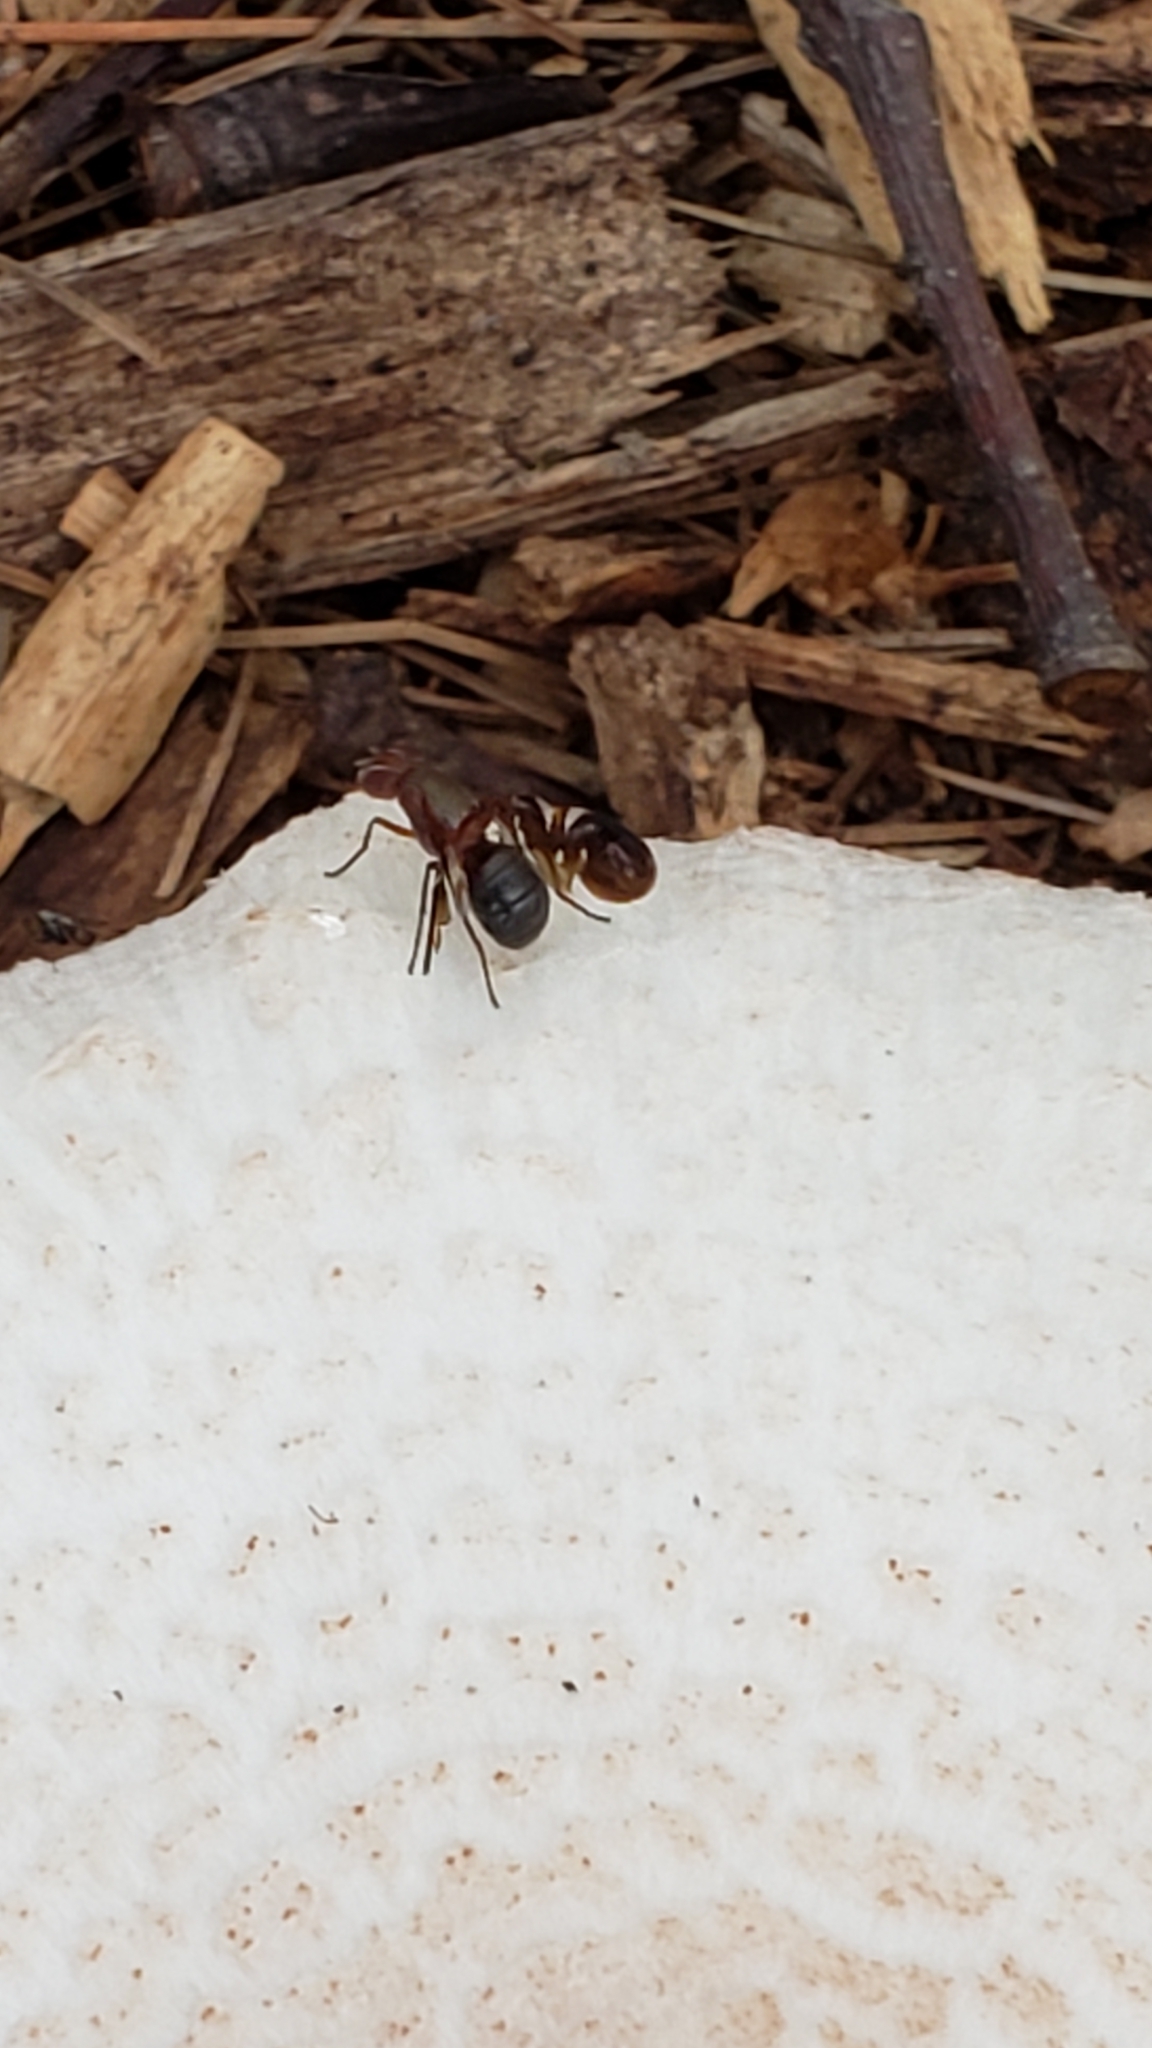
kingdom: Animalia
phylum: Arthropoda
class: Insecta
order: Diptera
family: Ulidiidae
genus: Delphinia
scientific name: Delphinia picta
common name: Common picture-winged fly
